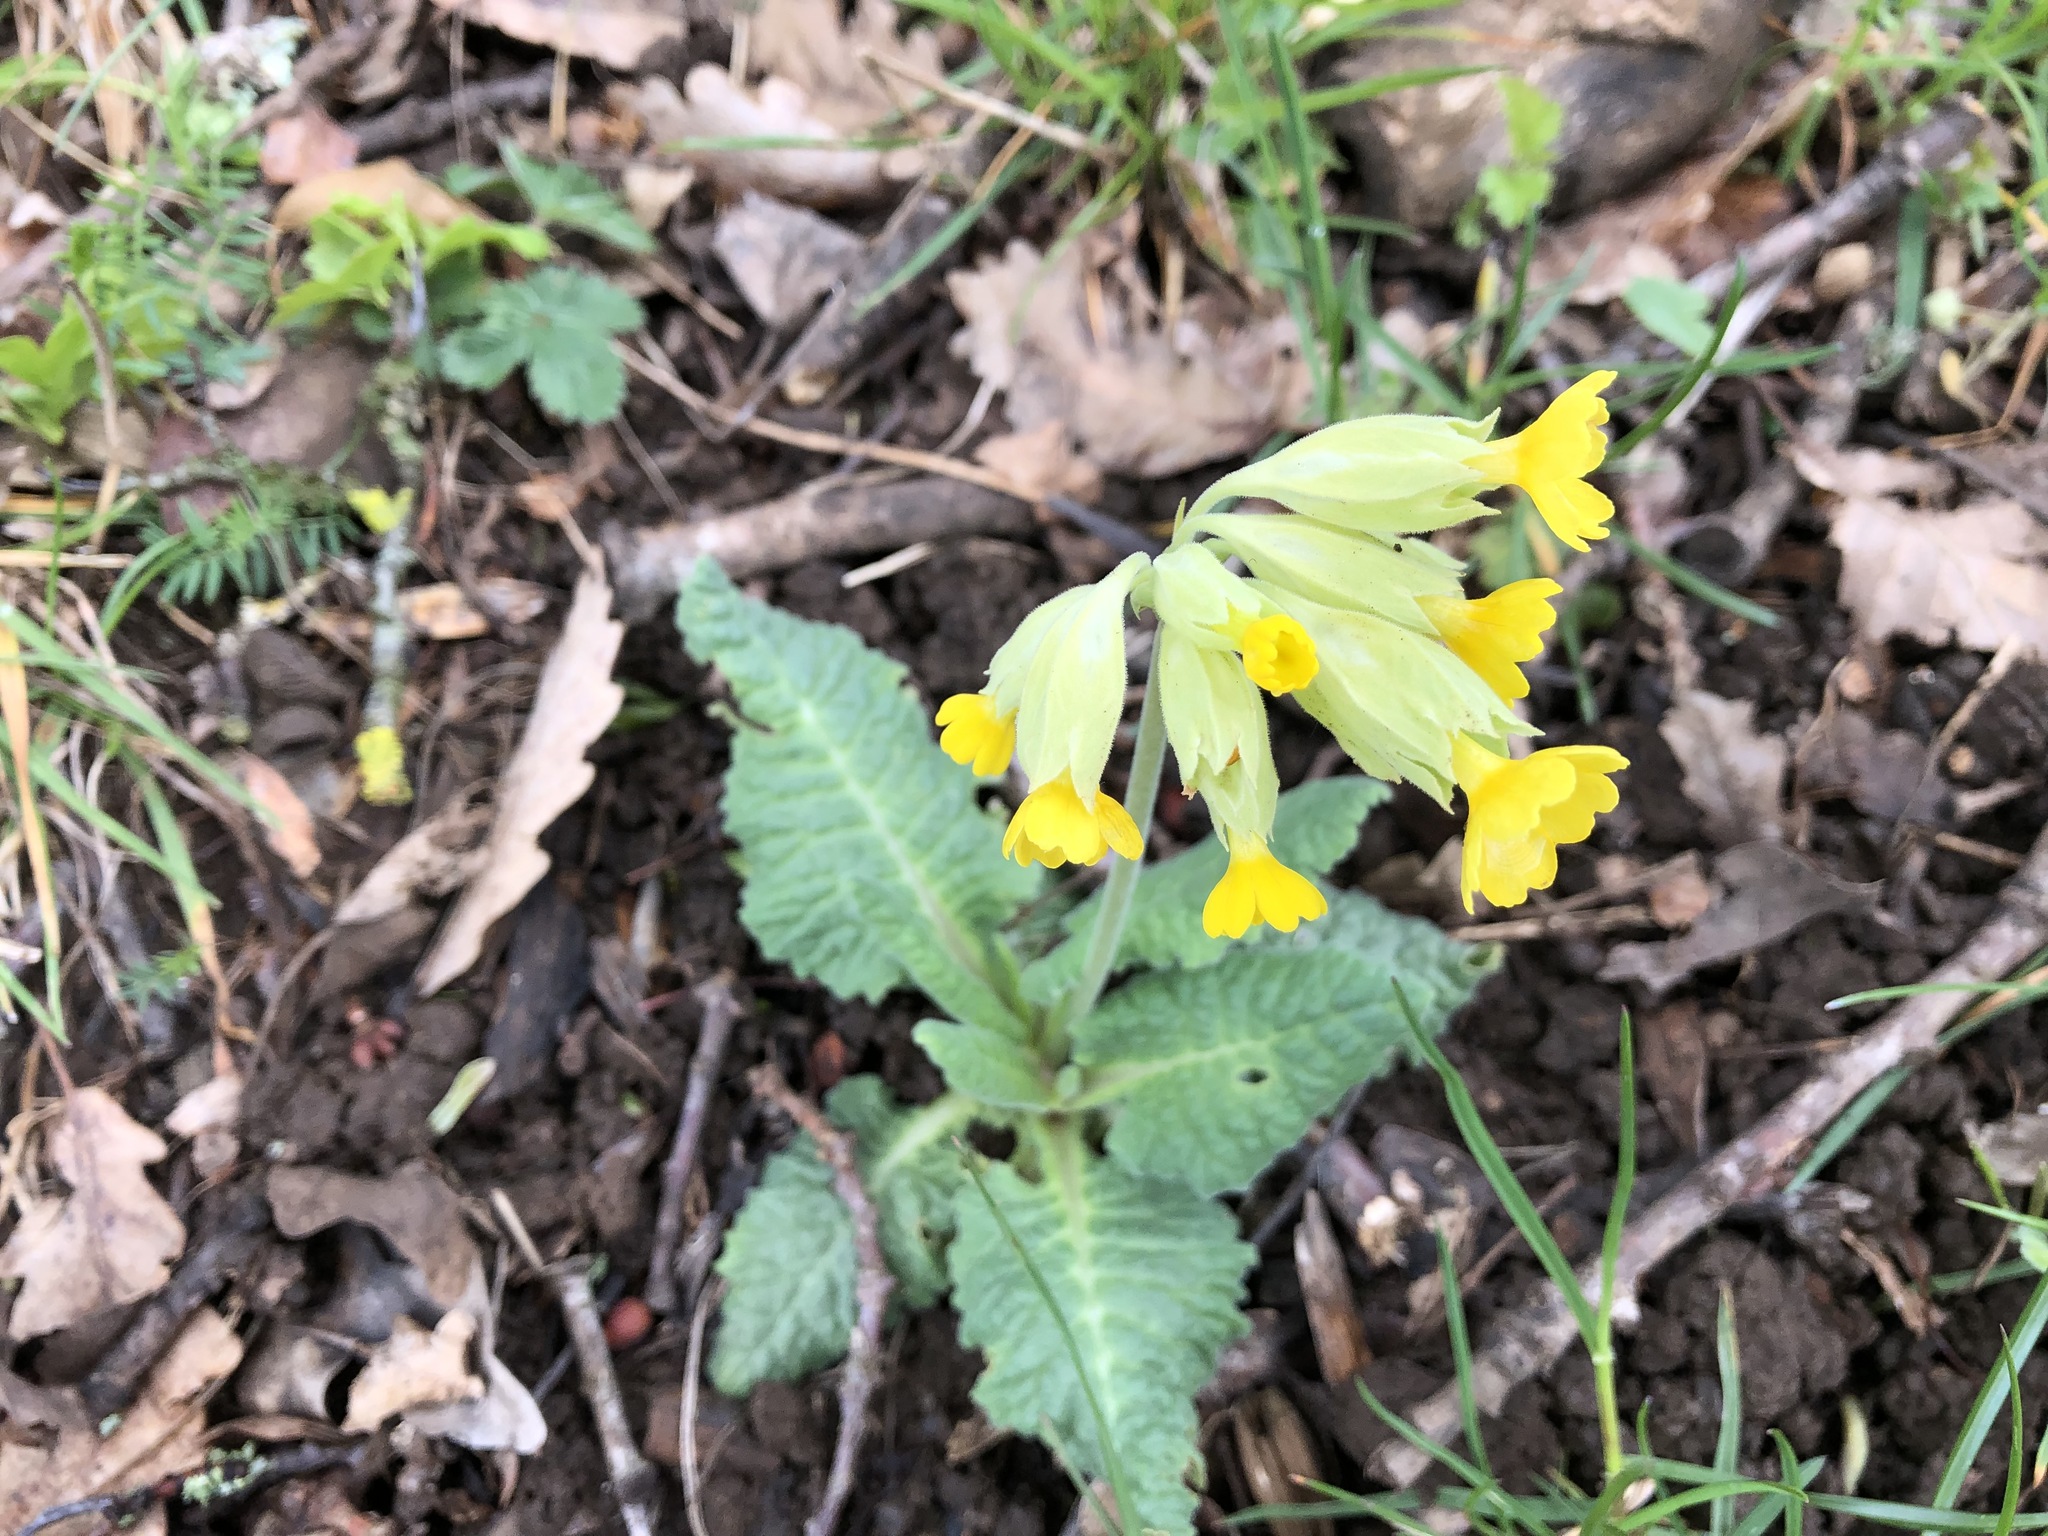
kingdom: Plantae
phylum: Tracheophyta
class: Magnoliopsida
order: Ericales
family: Primulaceae
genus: Primula
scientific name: Primula veris
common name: Cowslip
